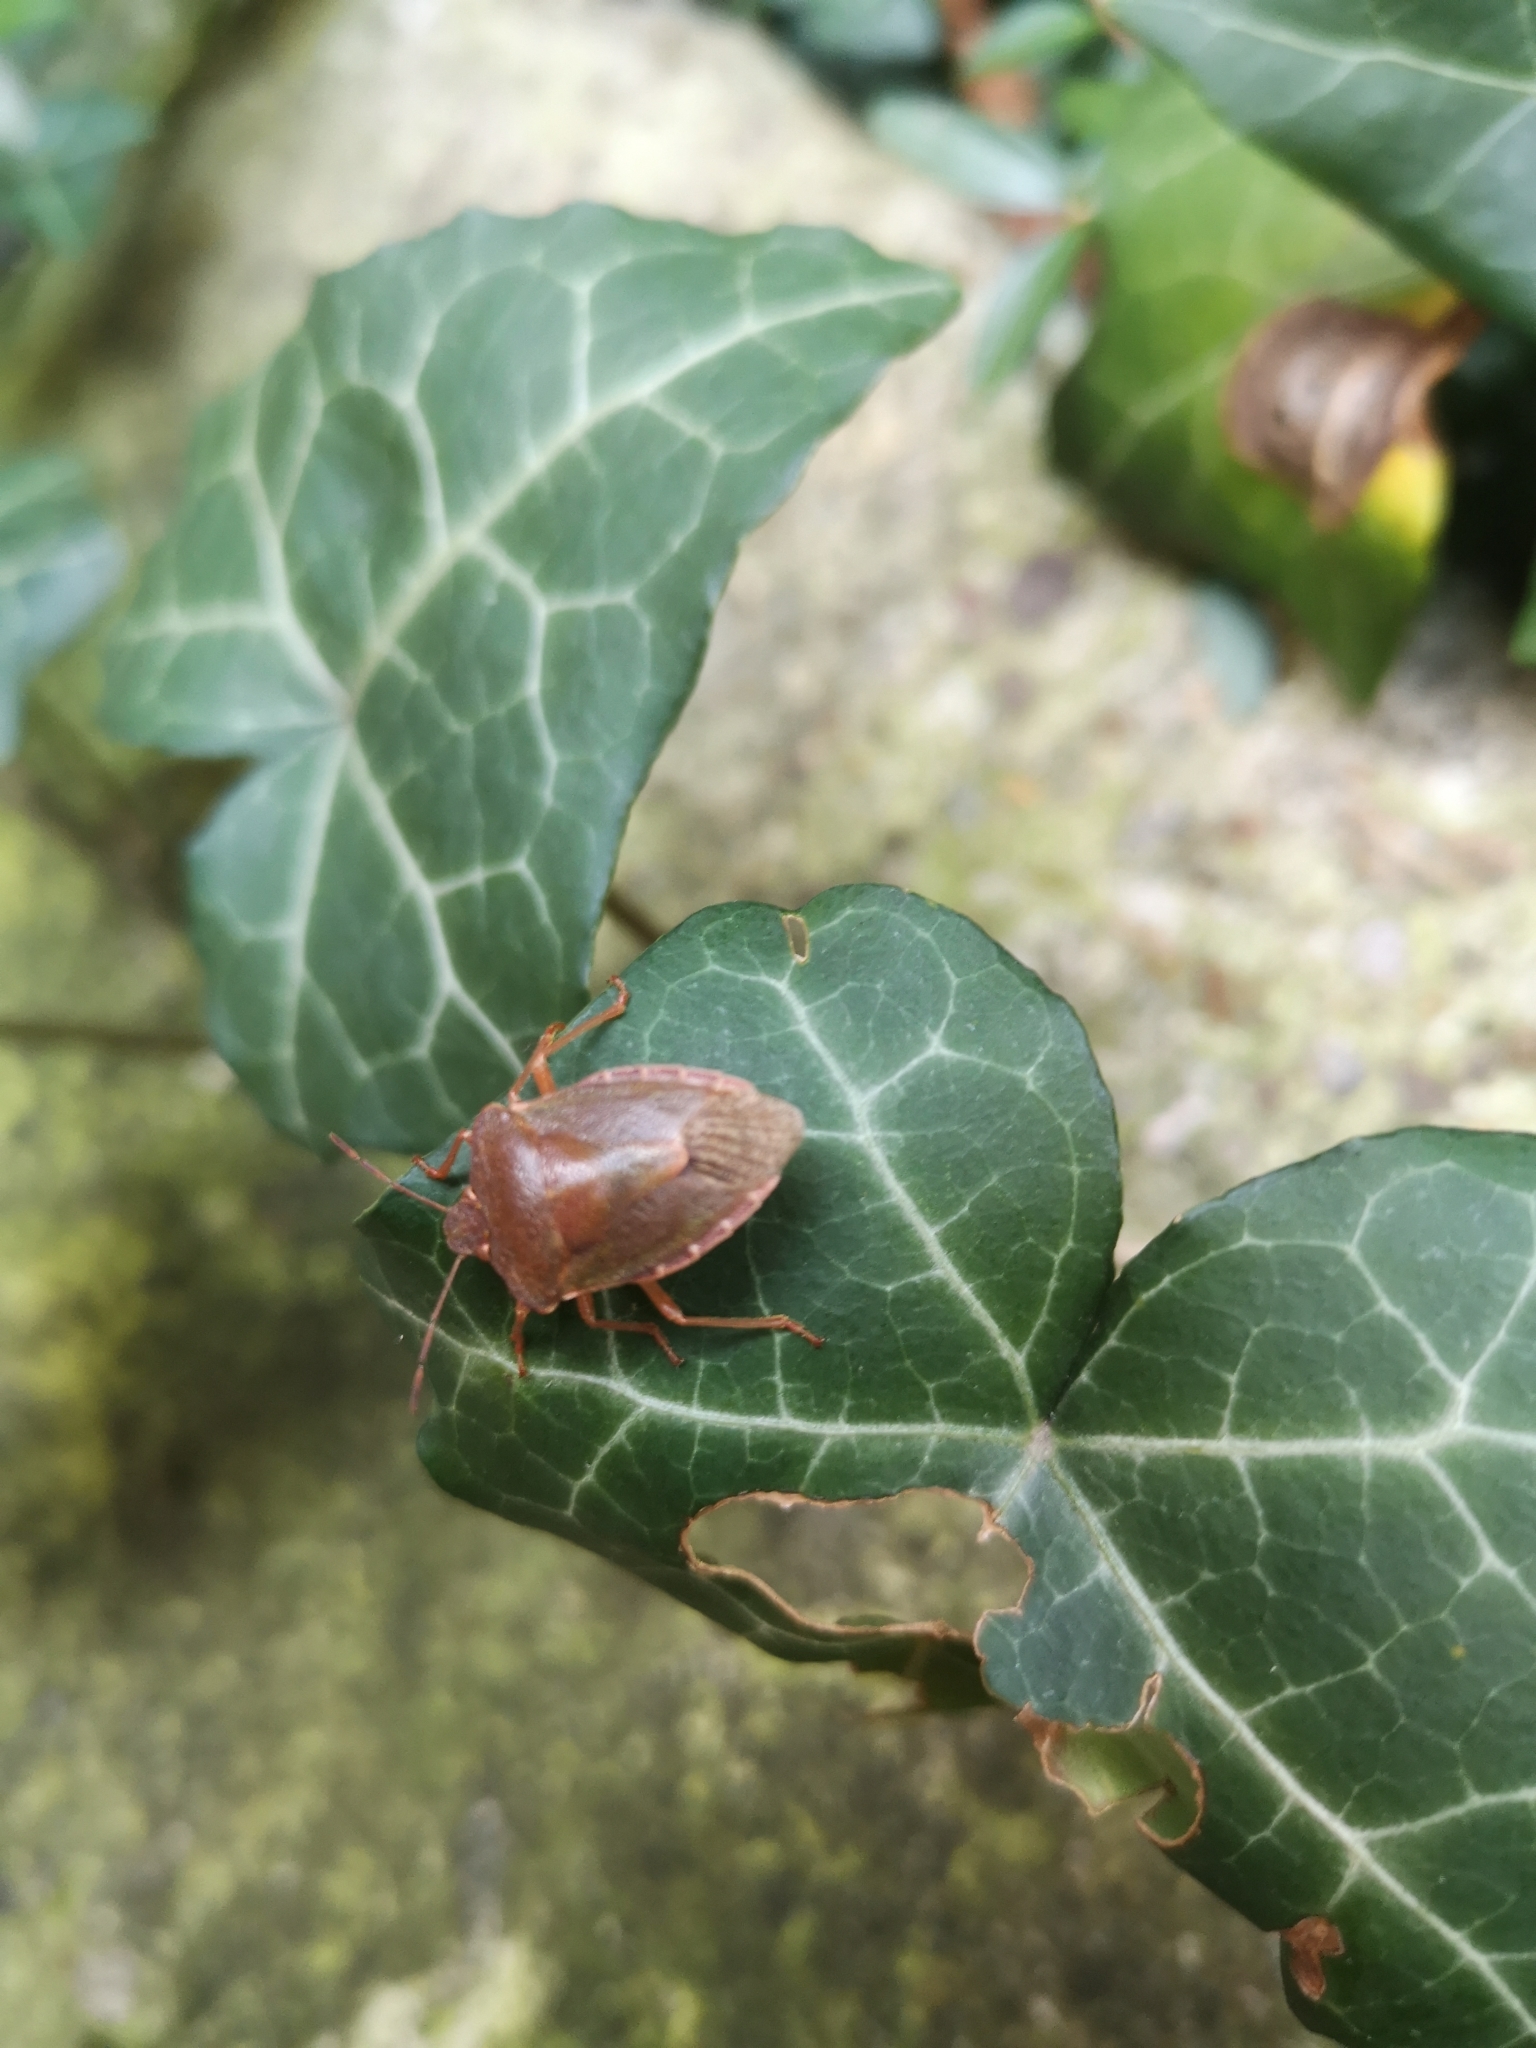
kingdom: Animalia
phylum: Arthropoda
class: Insecta
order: Hemiptera
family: Pentatomidae
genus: Palomena
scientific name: Palomena prasina
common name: Green shieldbug
